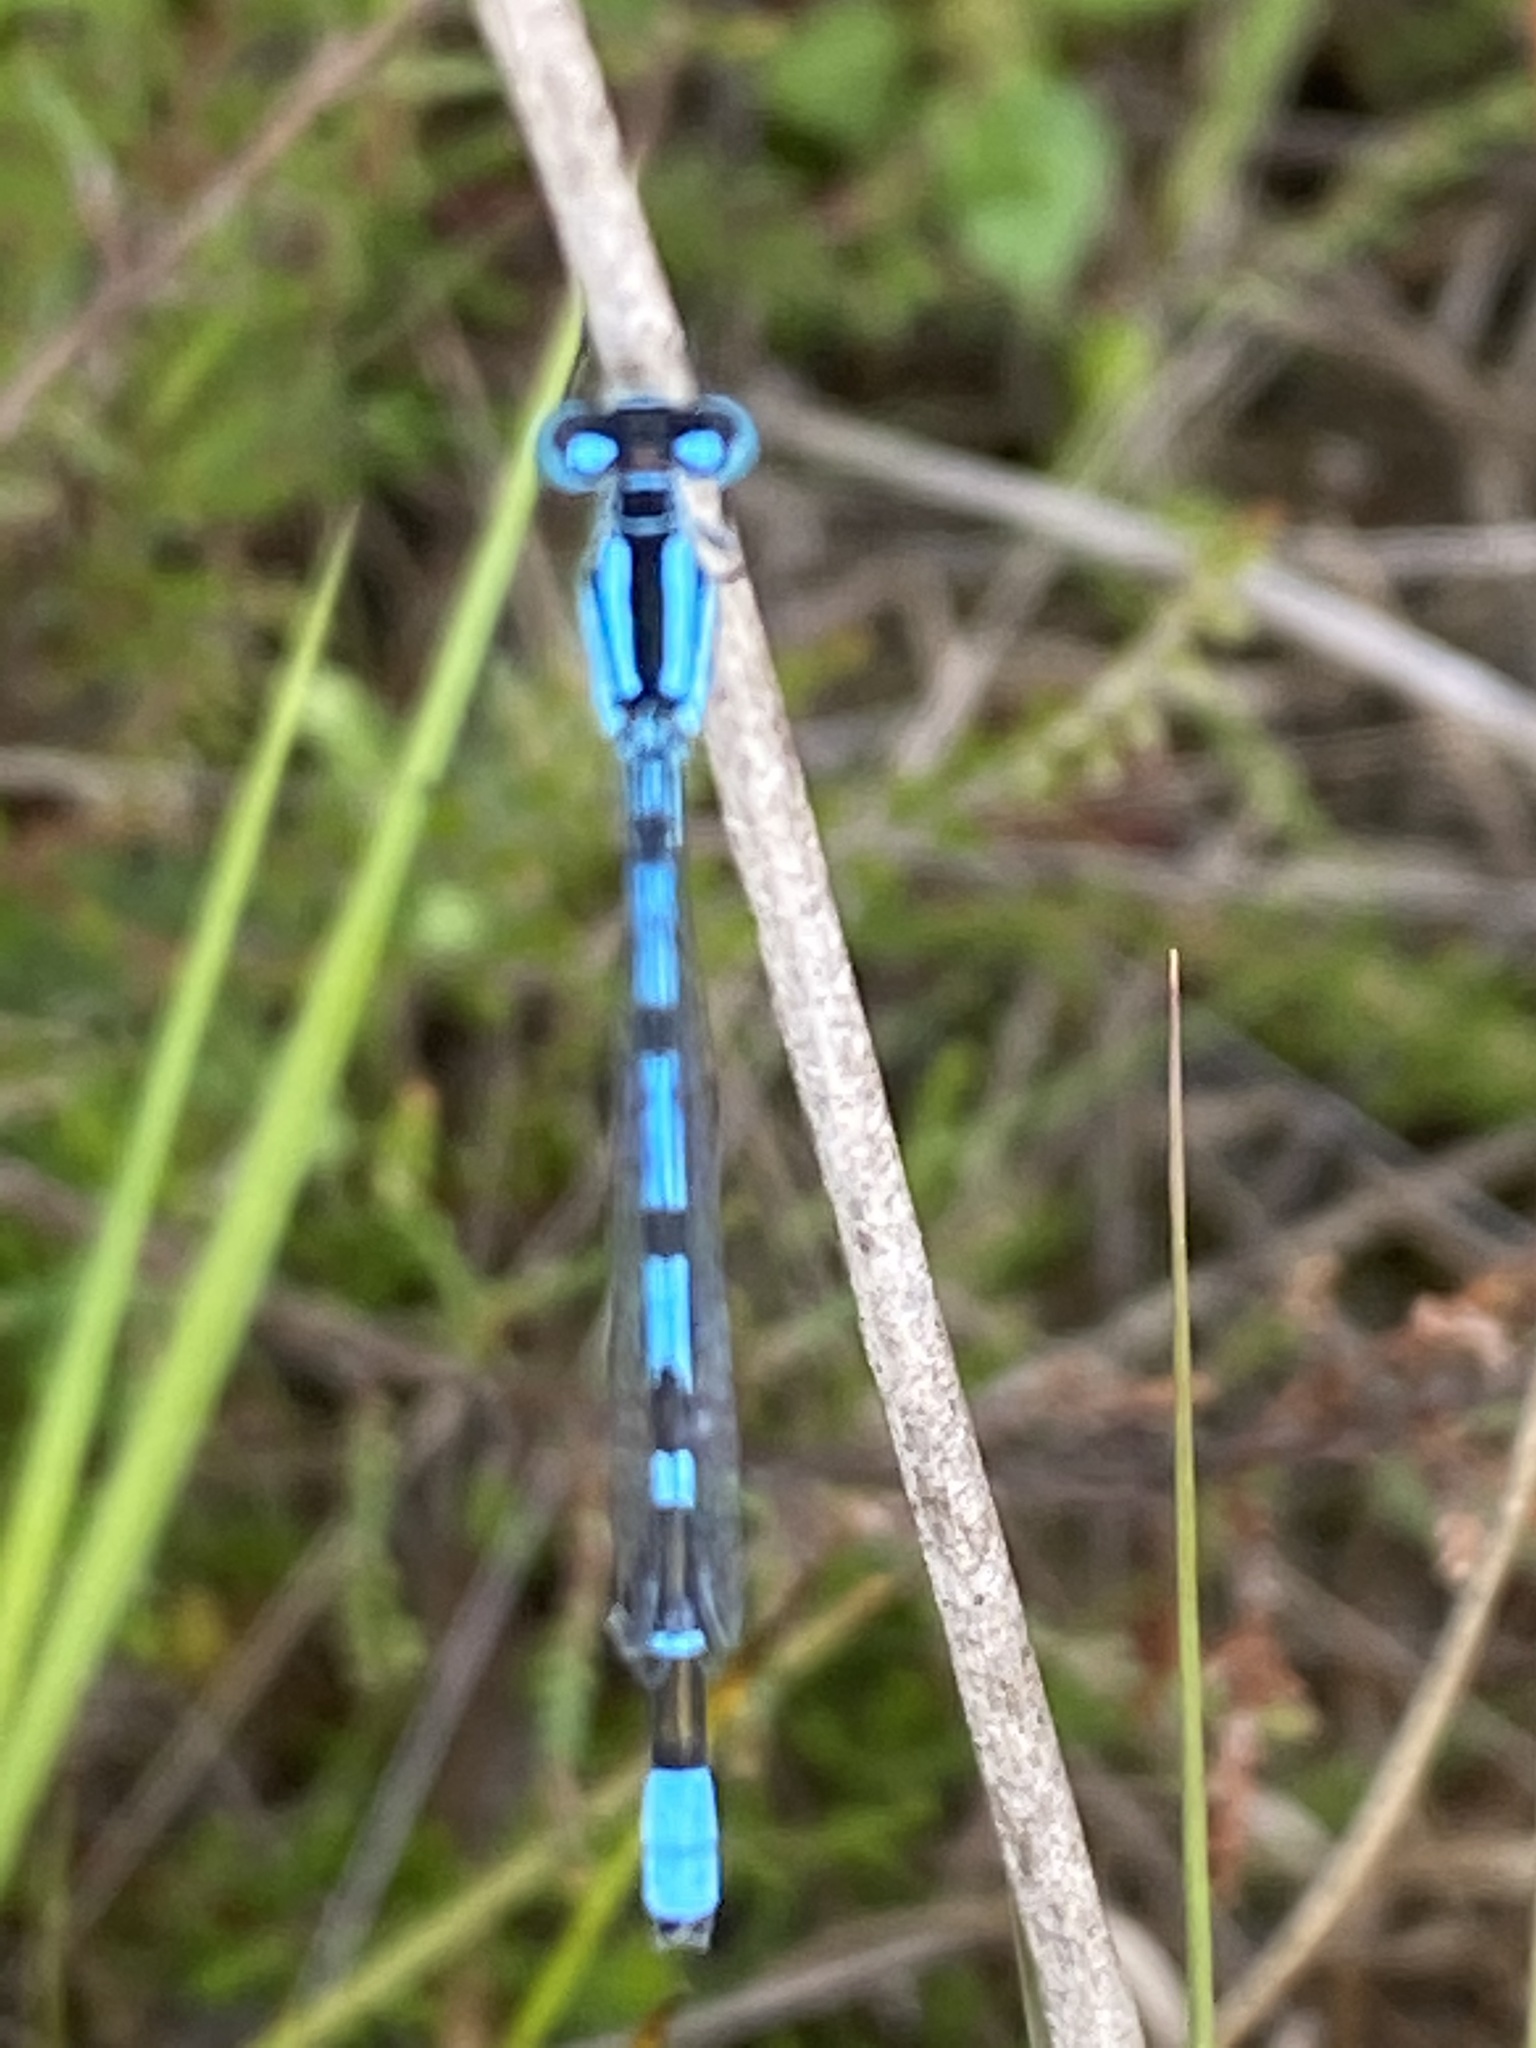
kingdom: Animalia
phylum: Arthropoda
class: Insecta
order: Odonata
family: Coenagrionidae
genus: Enallagma
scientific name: Enallagma cyathigerum
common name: Common blue damselfly
